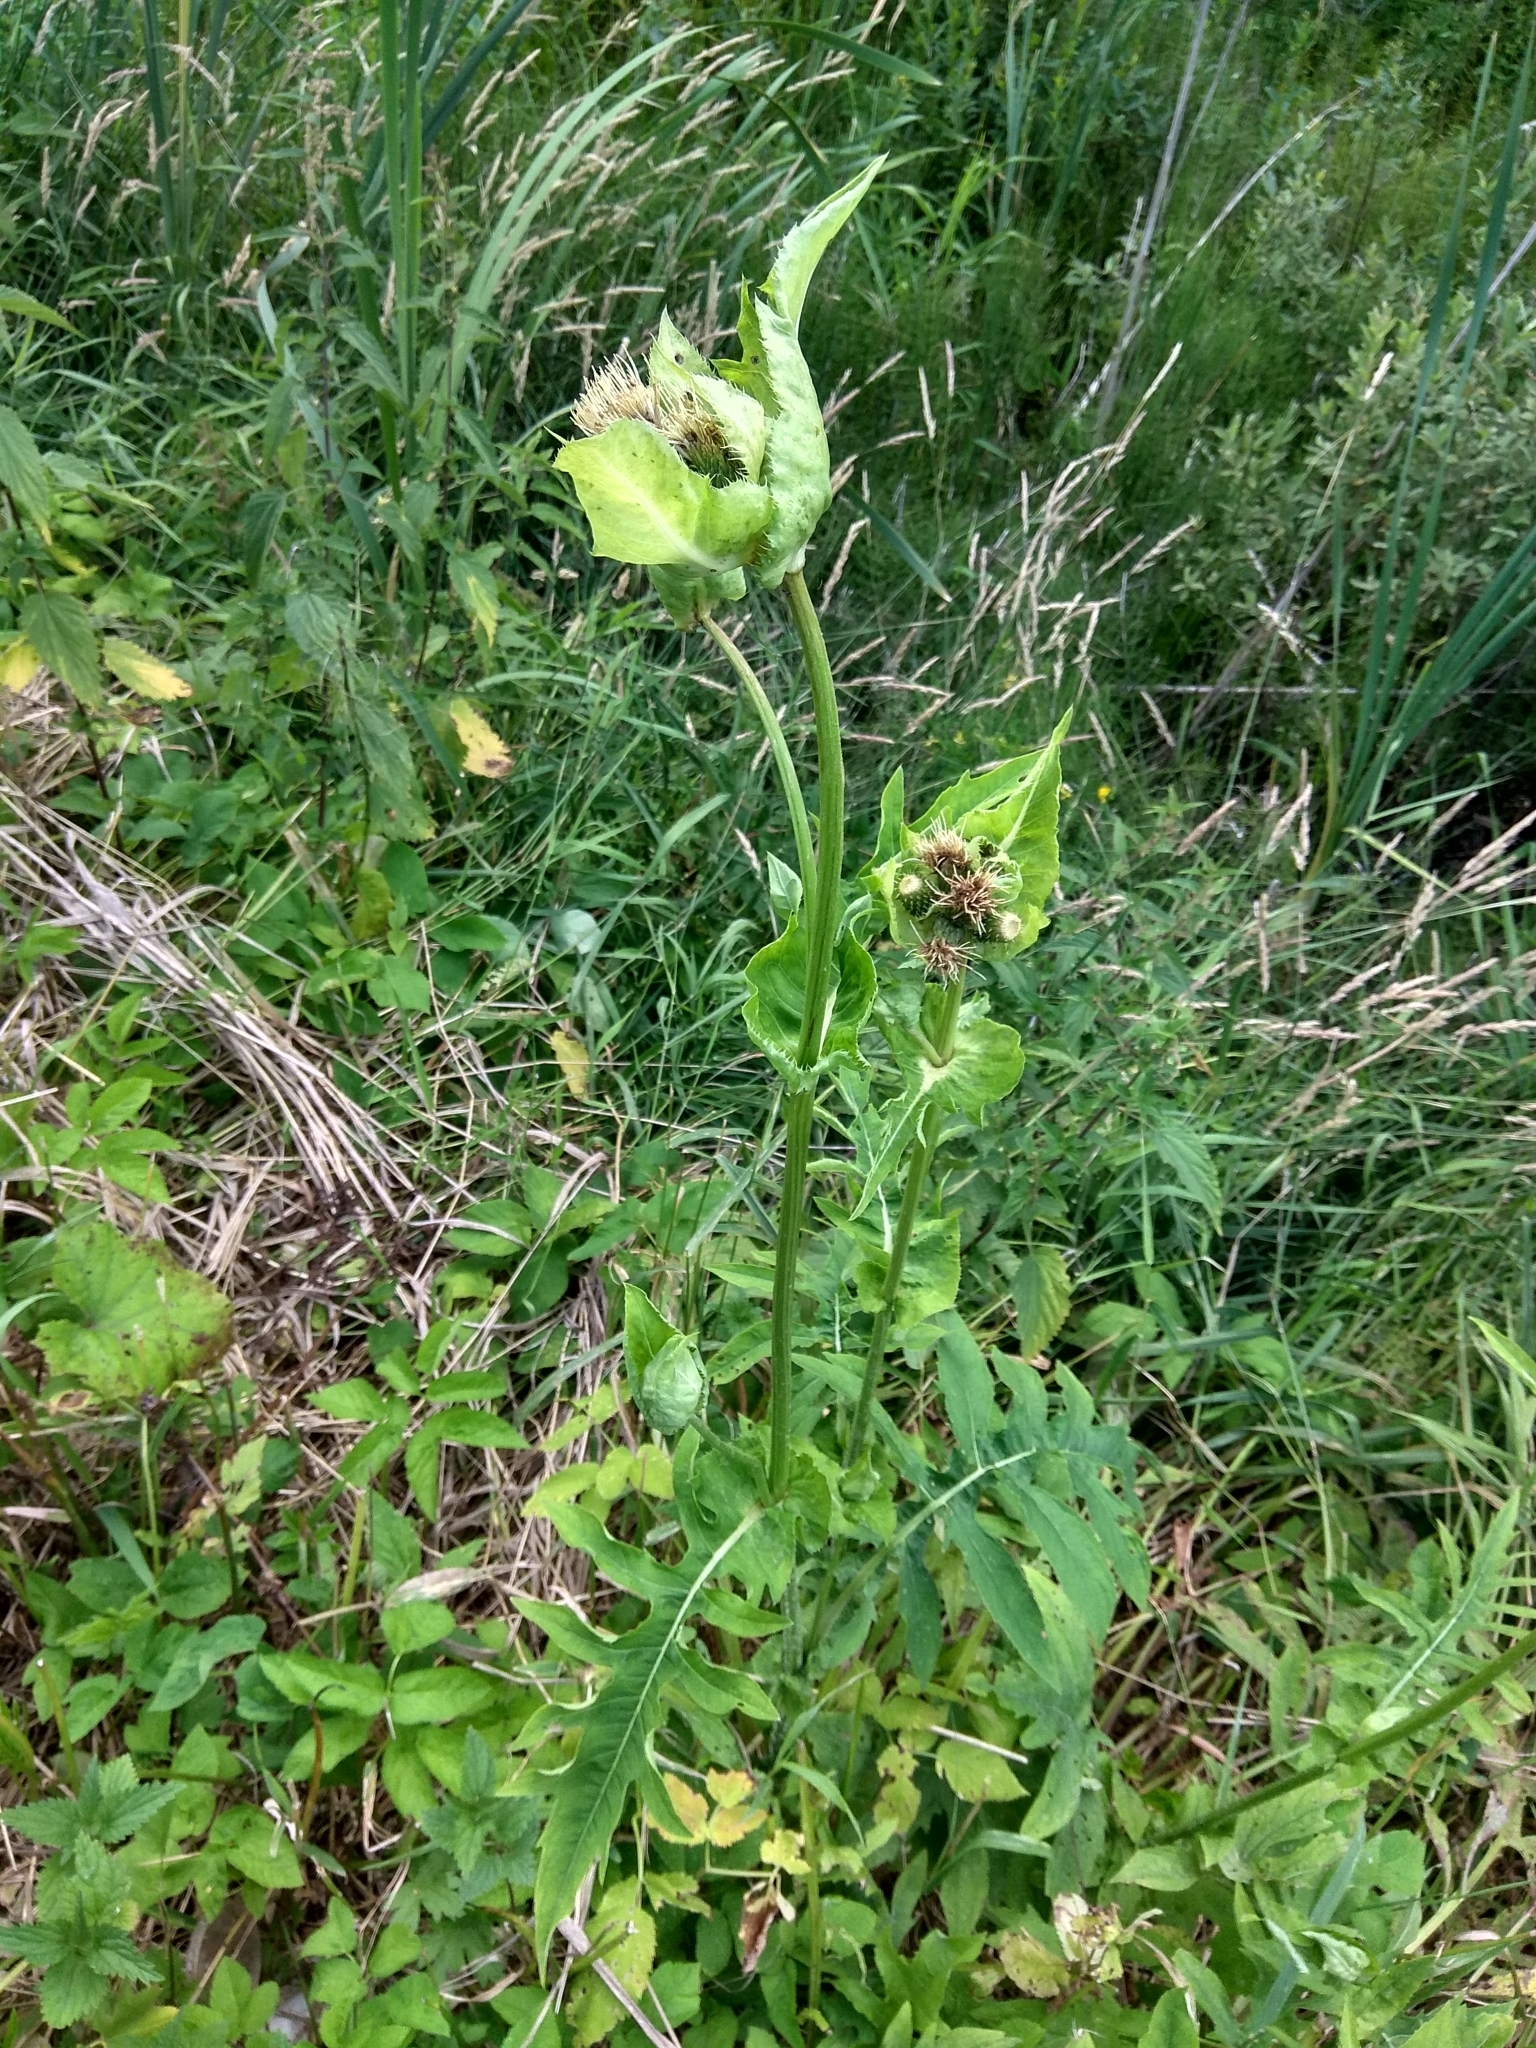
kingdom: Plantae
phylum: Tracheophyta
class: Magnoliopsida
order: Asterales
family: Asteraceae
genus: Cirsium
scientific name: Cirsium oleraceum
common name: Cabbage thistle
